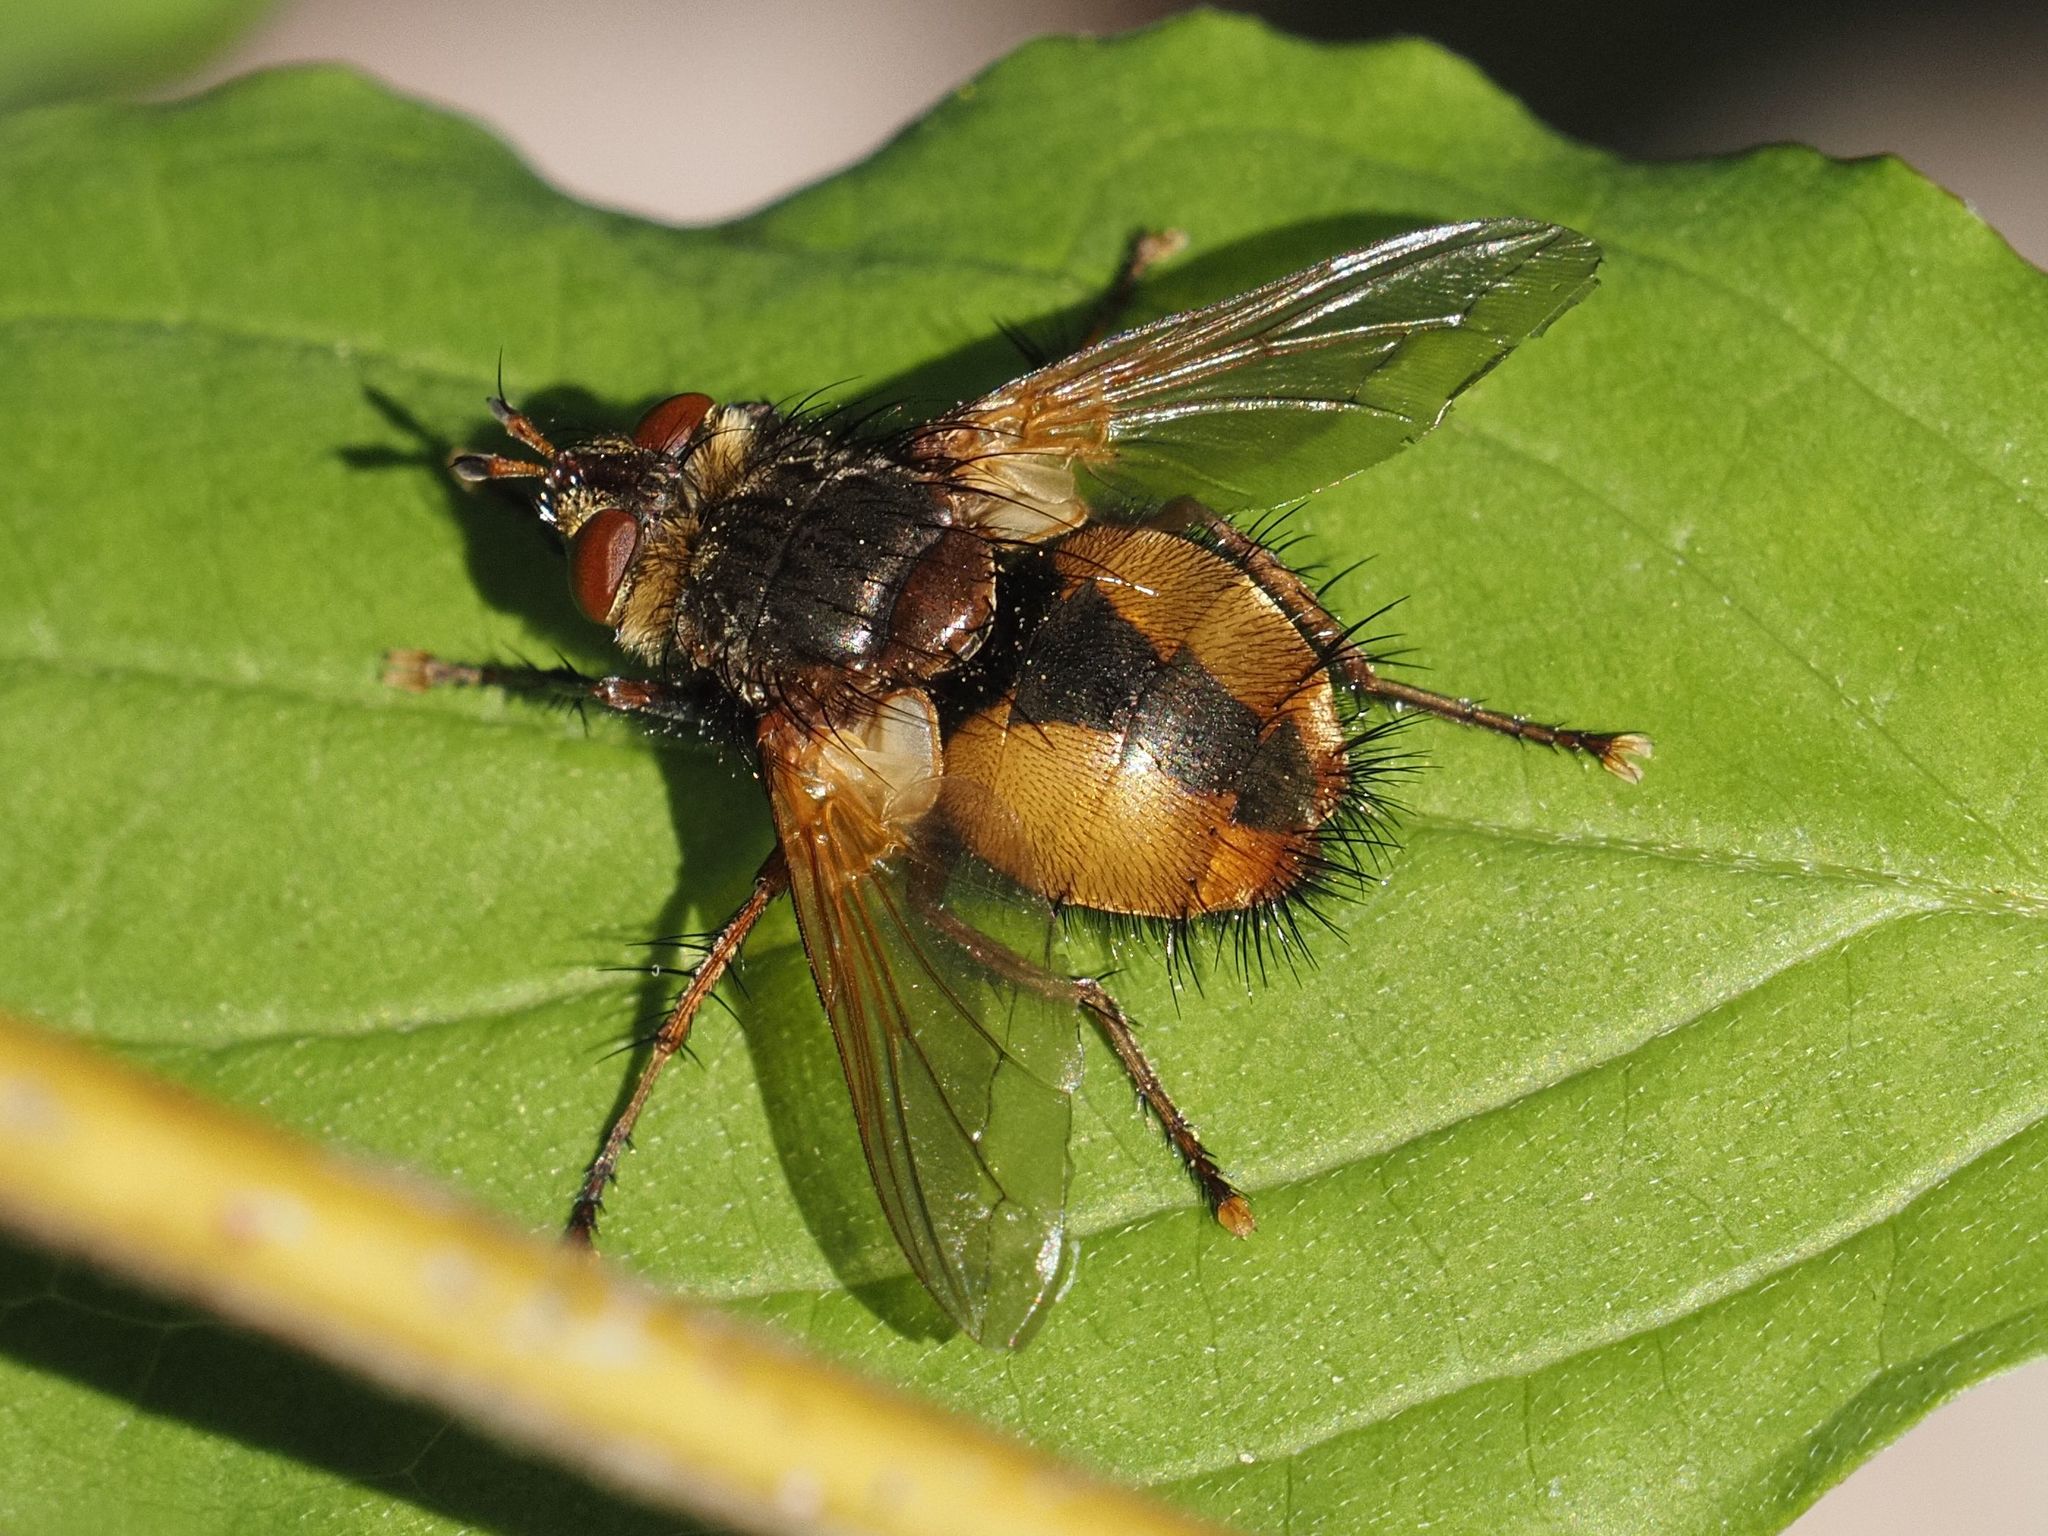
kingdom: Animalia
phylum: Arthropoda
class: Insecta
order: Diptera
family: Tachinidae
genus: Tachina
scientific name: Tachina fera
